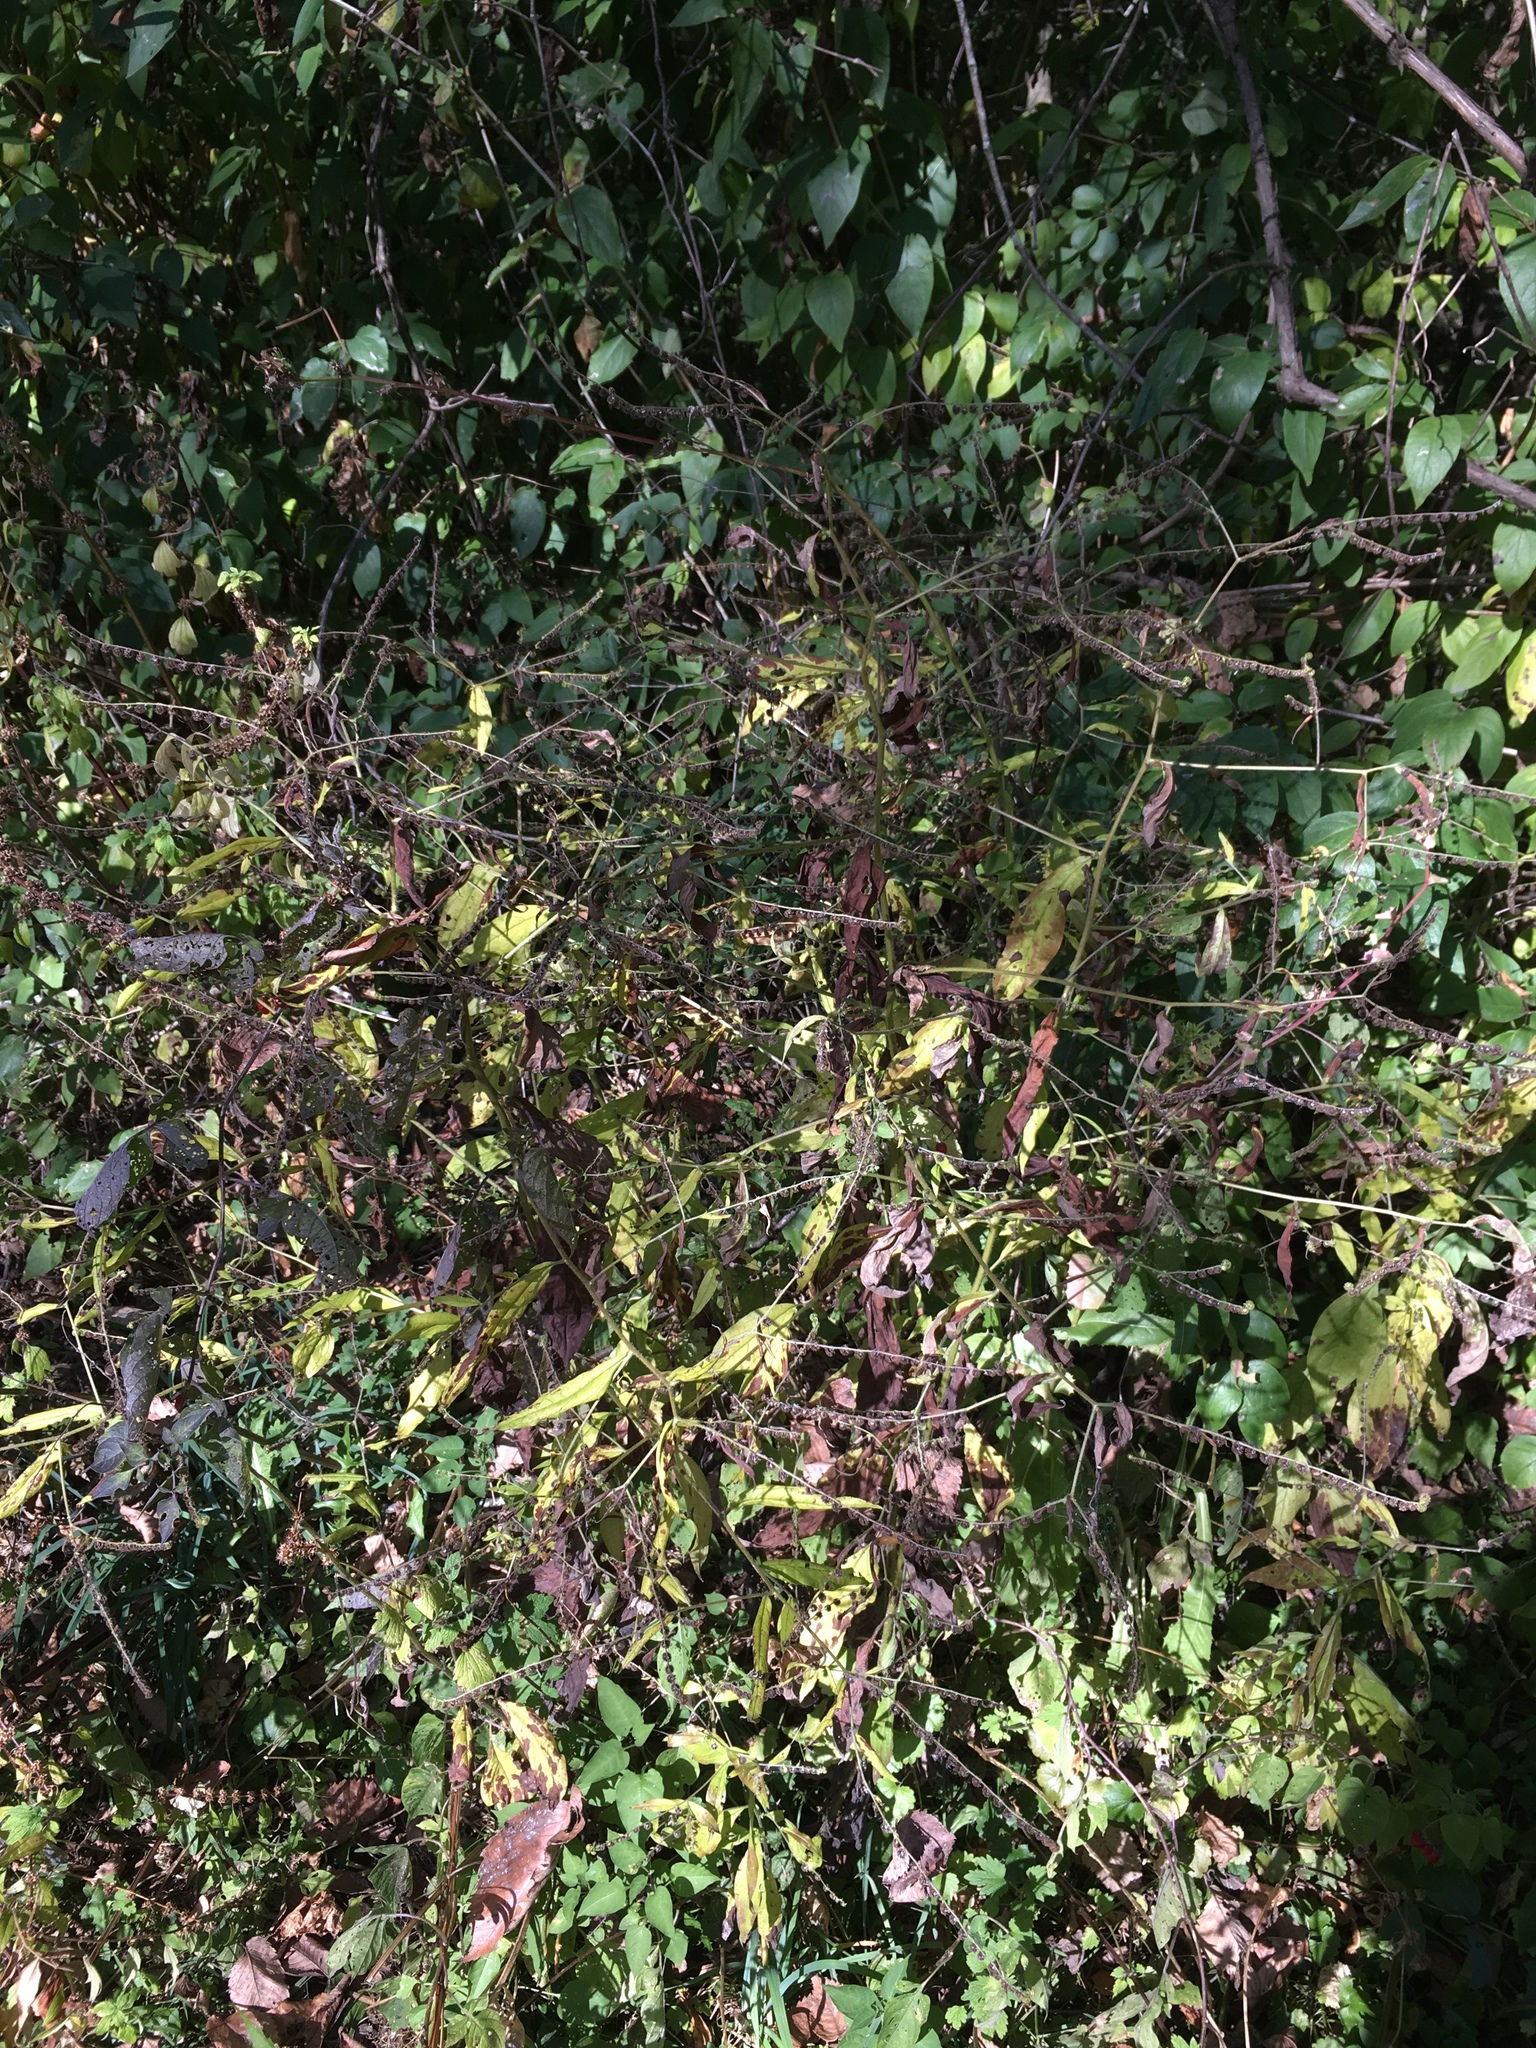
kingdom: Plantae
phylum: Tracheophyta
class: Magnoliopsida
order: Boraginales
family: Boraginaceae
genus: Hackelia
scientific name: Hackelia virginiana
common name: Beggar's-lice
